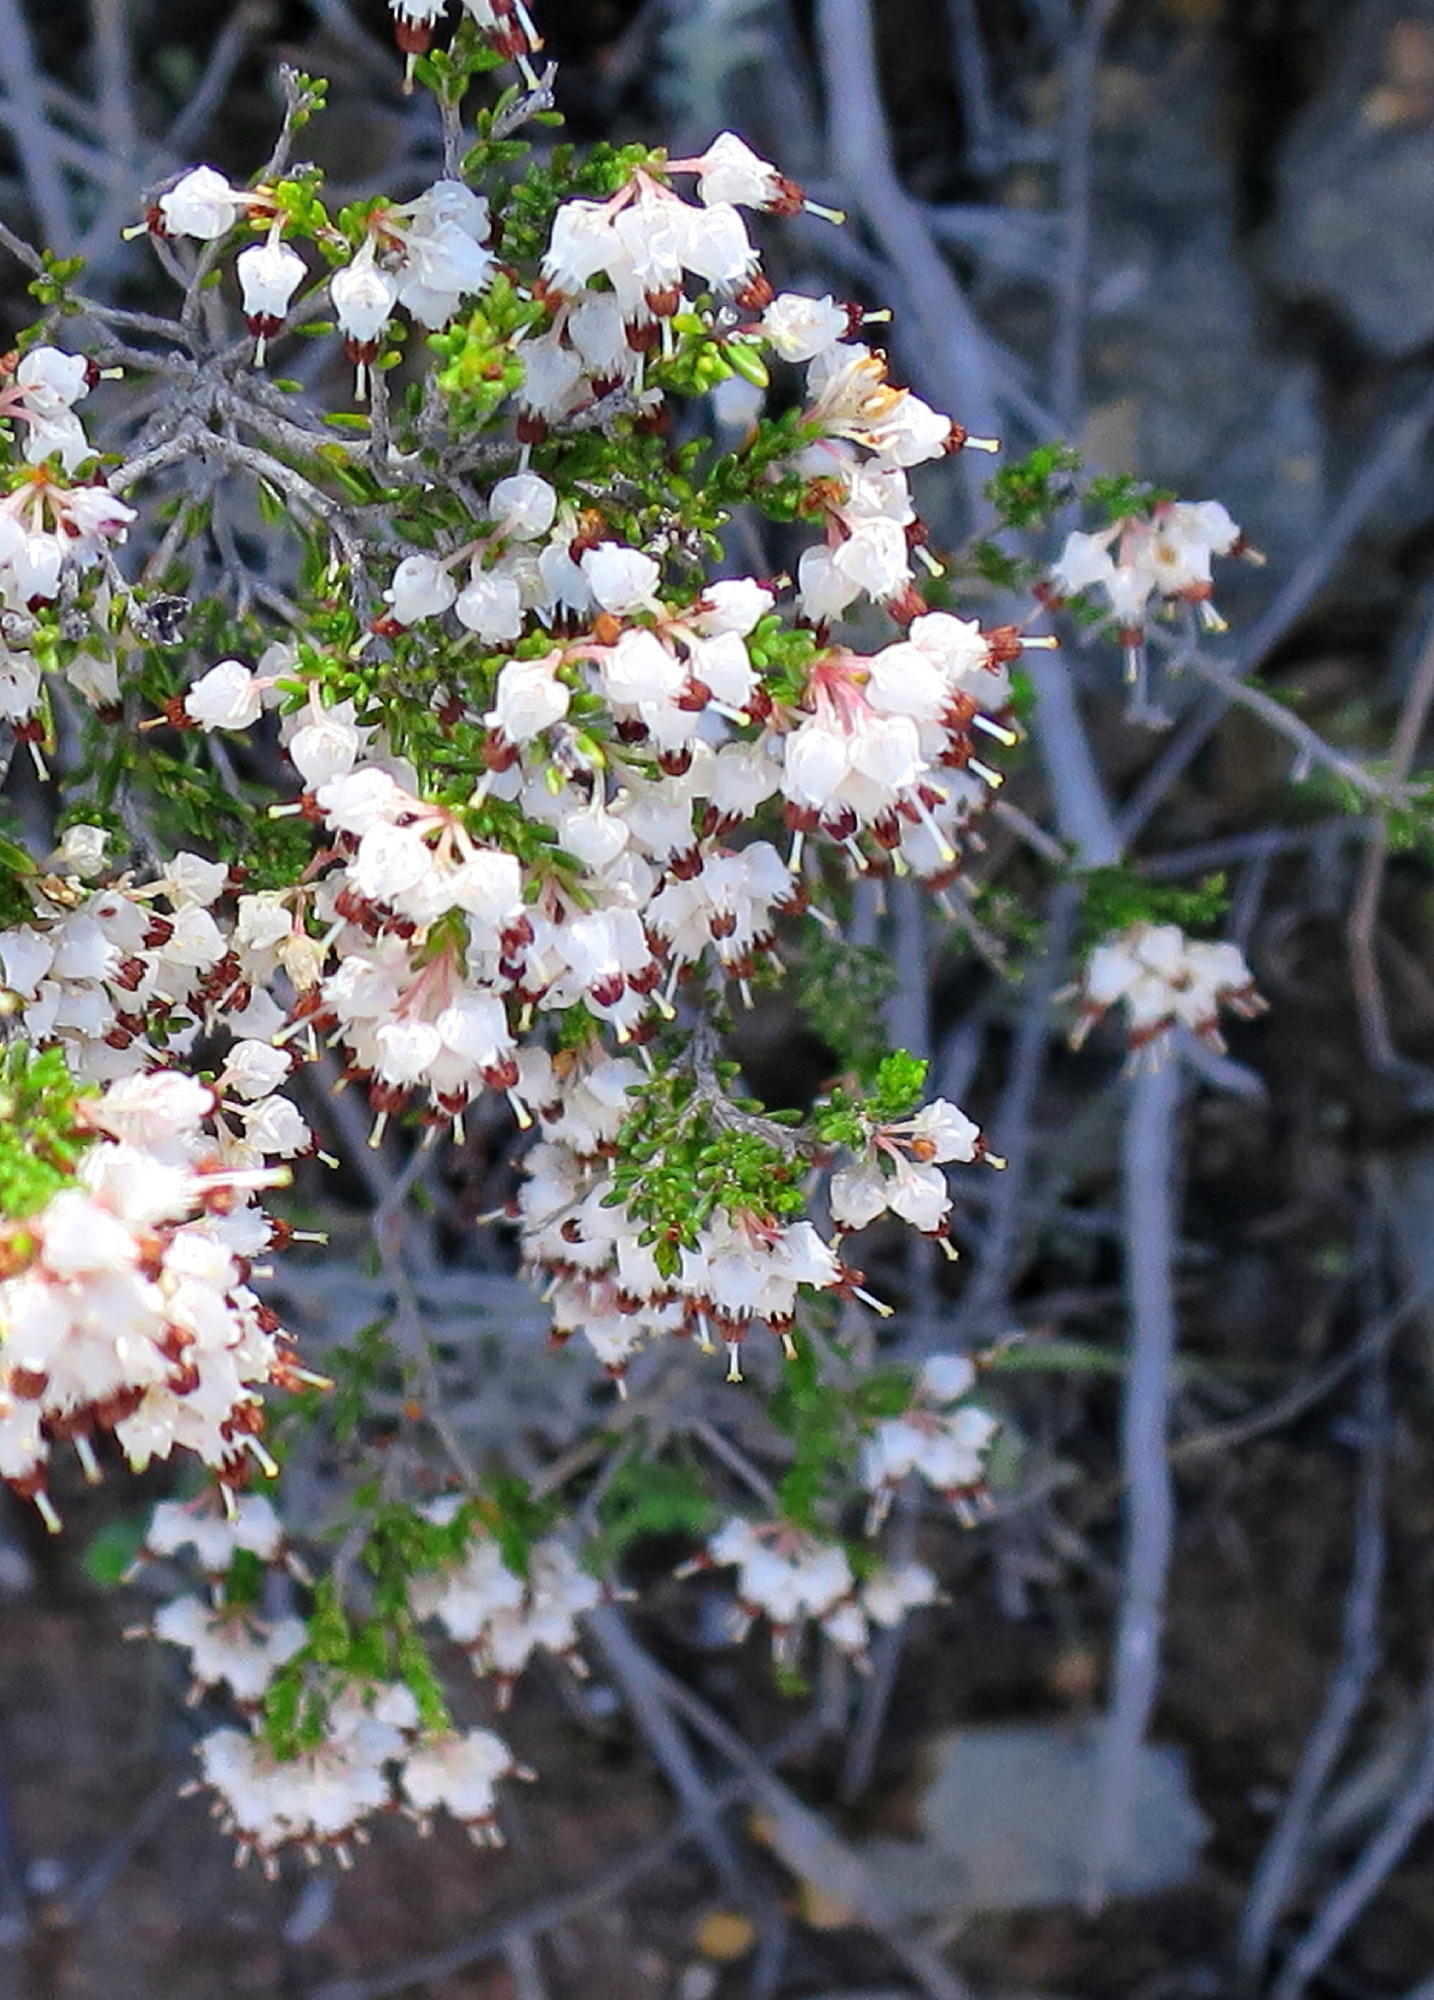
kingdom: Plantae
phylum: Tracheophyta
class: Magnoliopsida
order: Ericales
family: Ericaceae
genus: Erica
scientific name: Erica demissa
